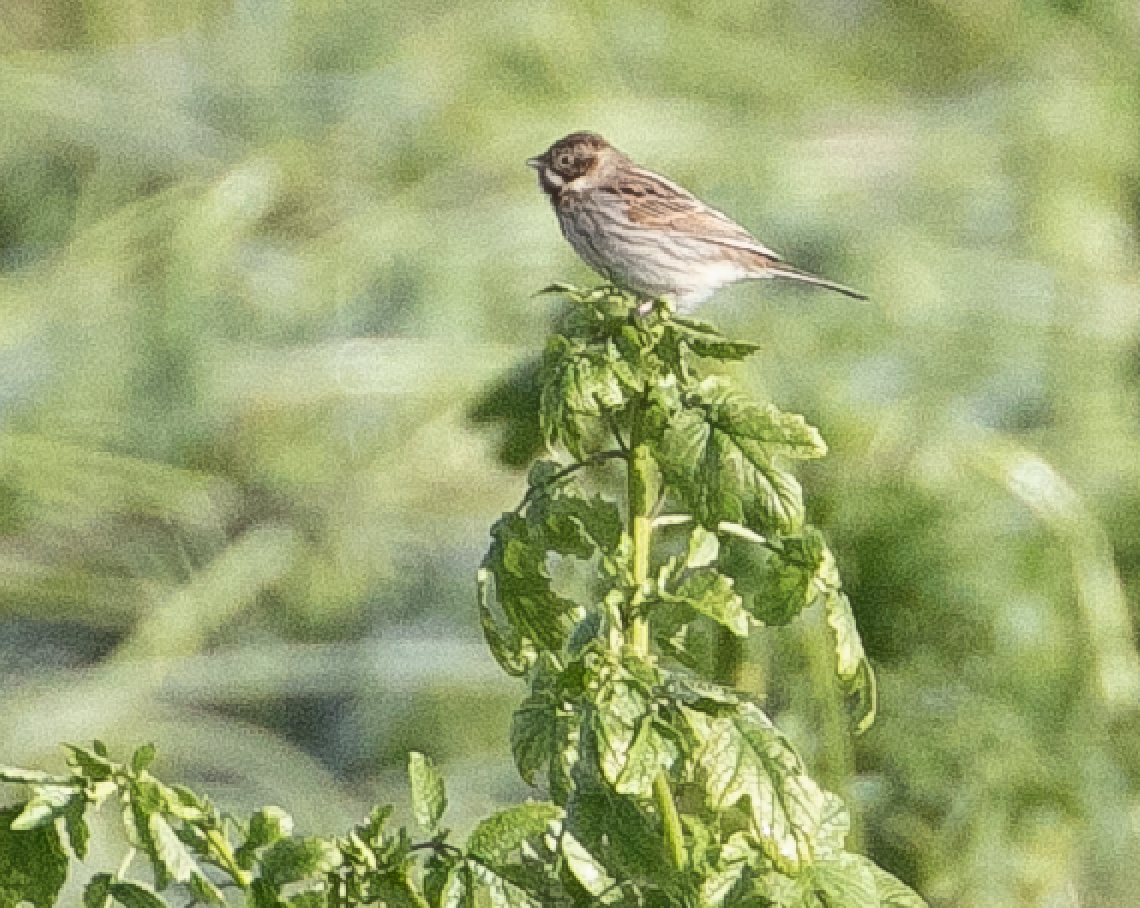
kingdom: Animalia
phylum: Chordata
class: Aves
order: Passeriformes
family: Emberizidae
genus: Emberiza
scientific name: Emberiza schoeniclus
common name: Reed bunting
